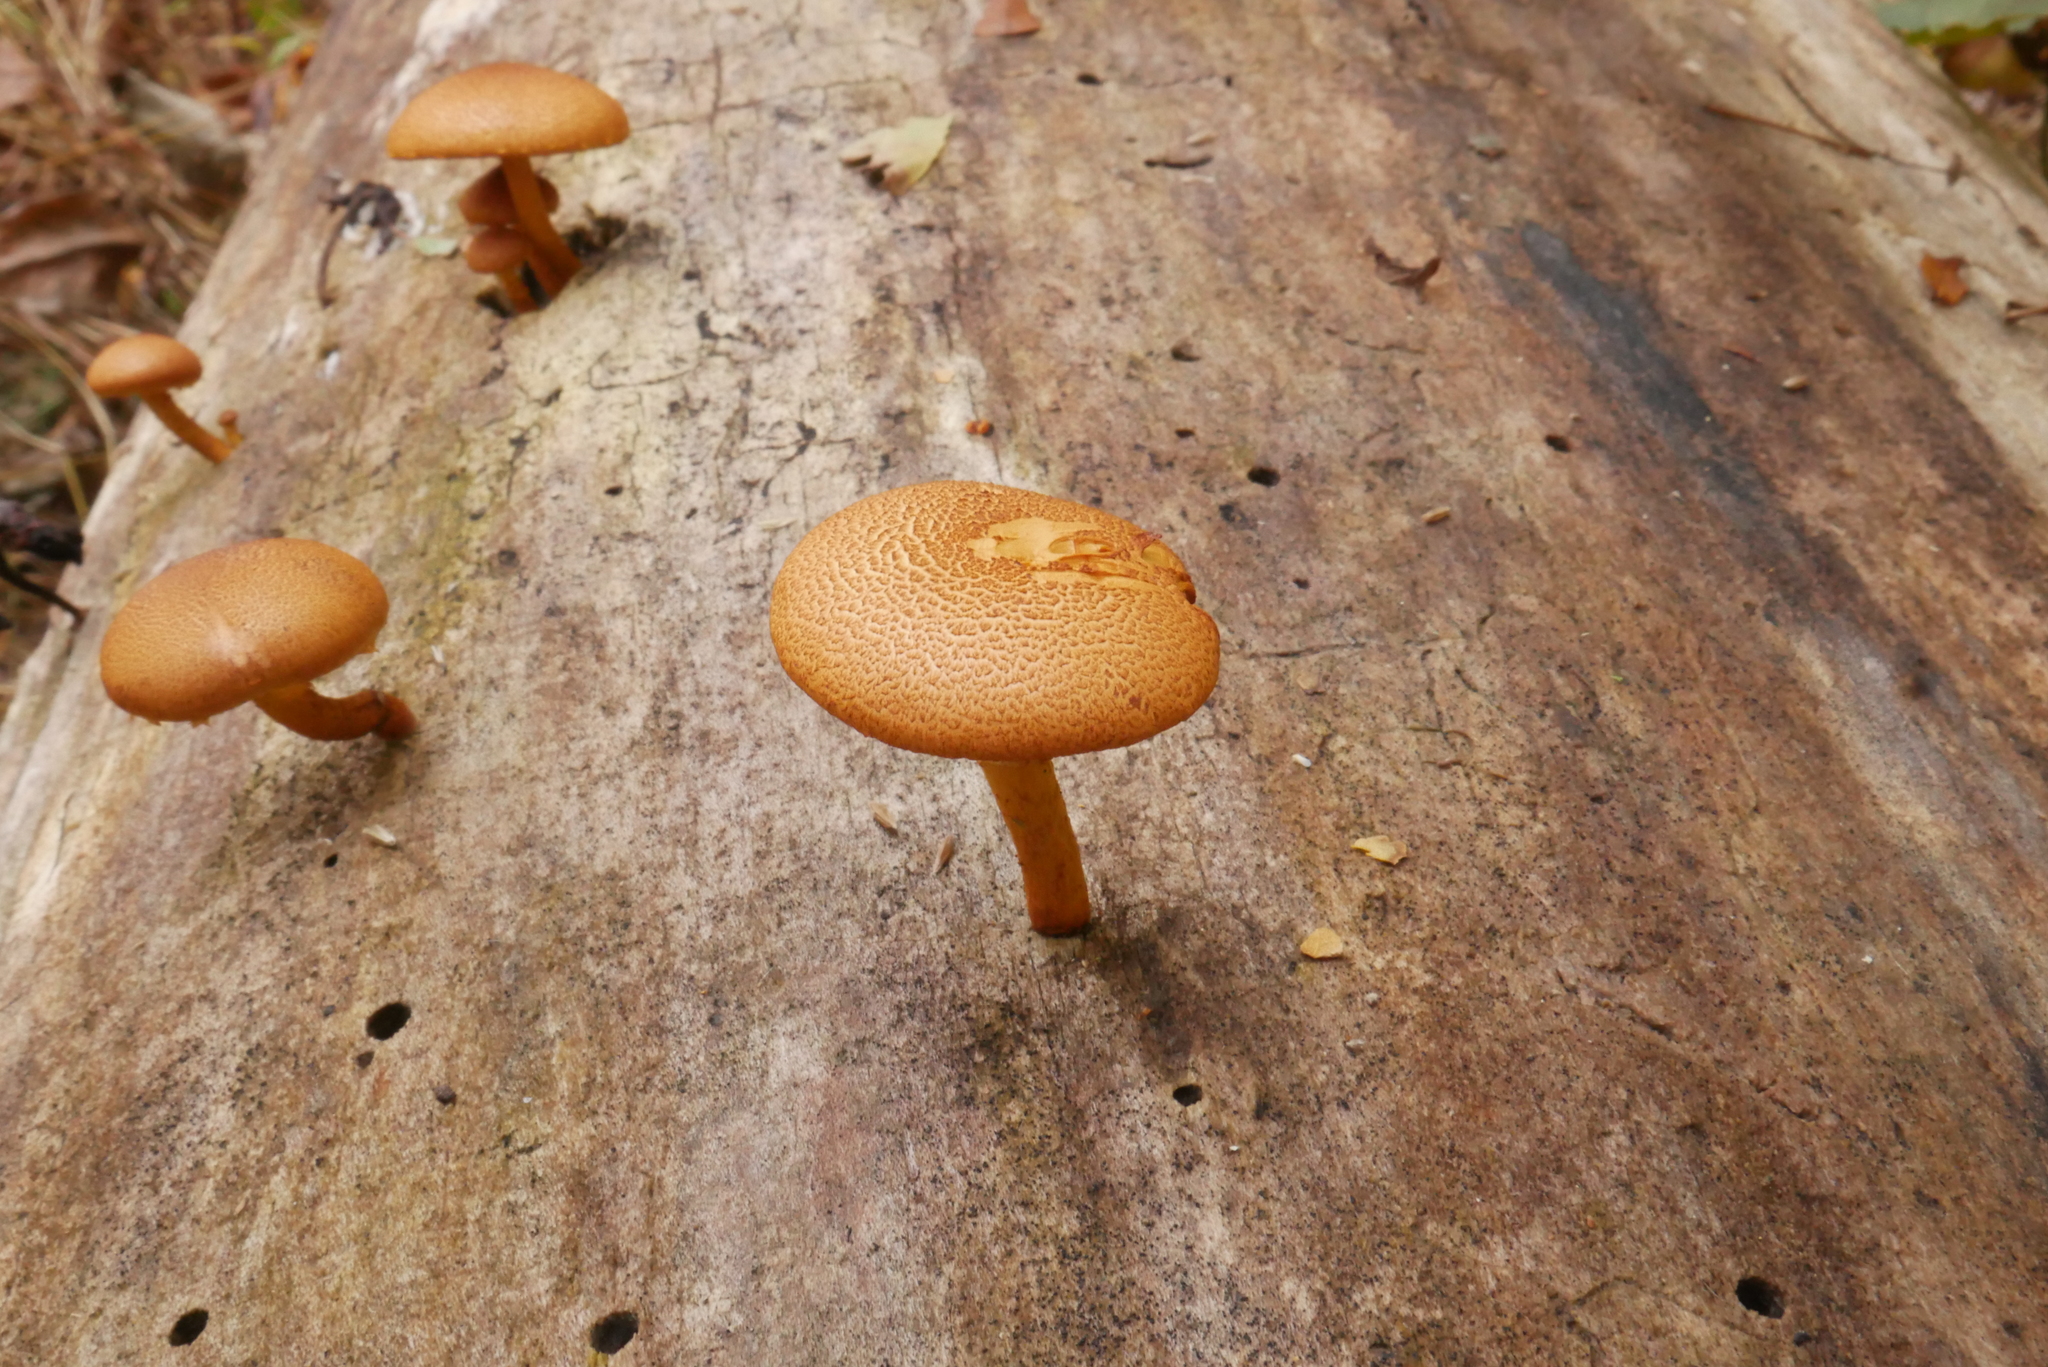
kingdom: Fungi
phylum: Basidiomycota
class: Agaricomycetes
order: Agaricales
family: Hymenogastraceae
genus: Gymnopilus
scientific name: Gymnopilus luteofolius
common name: Yellow-gilled gymnopilus
